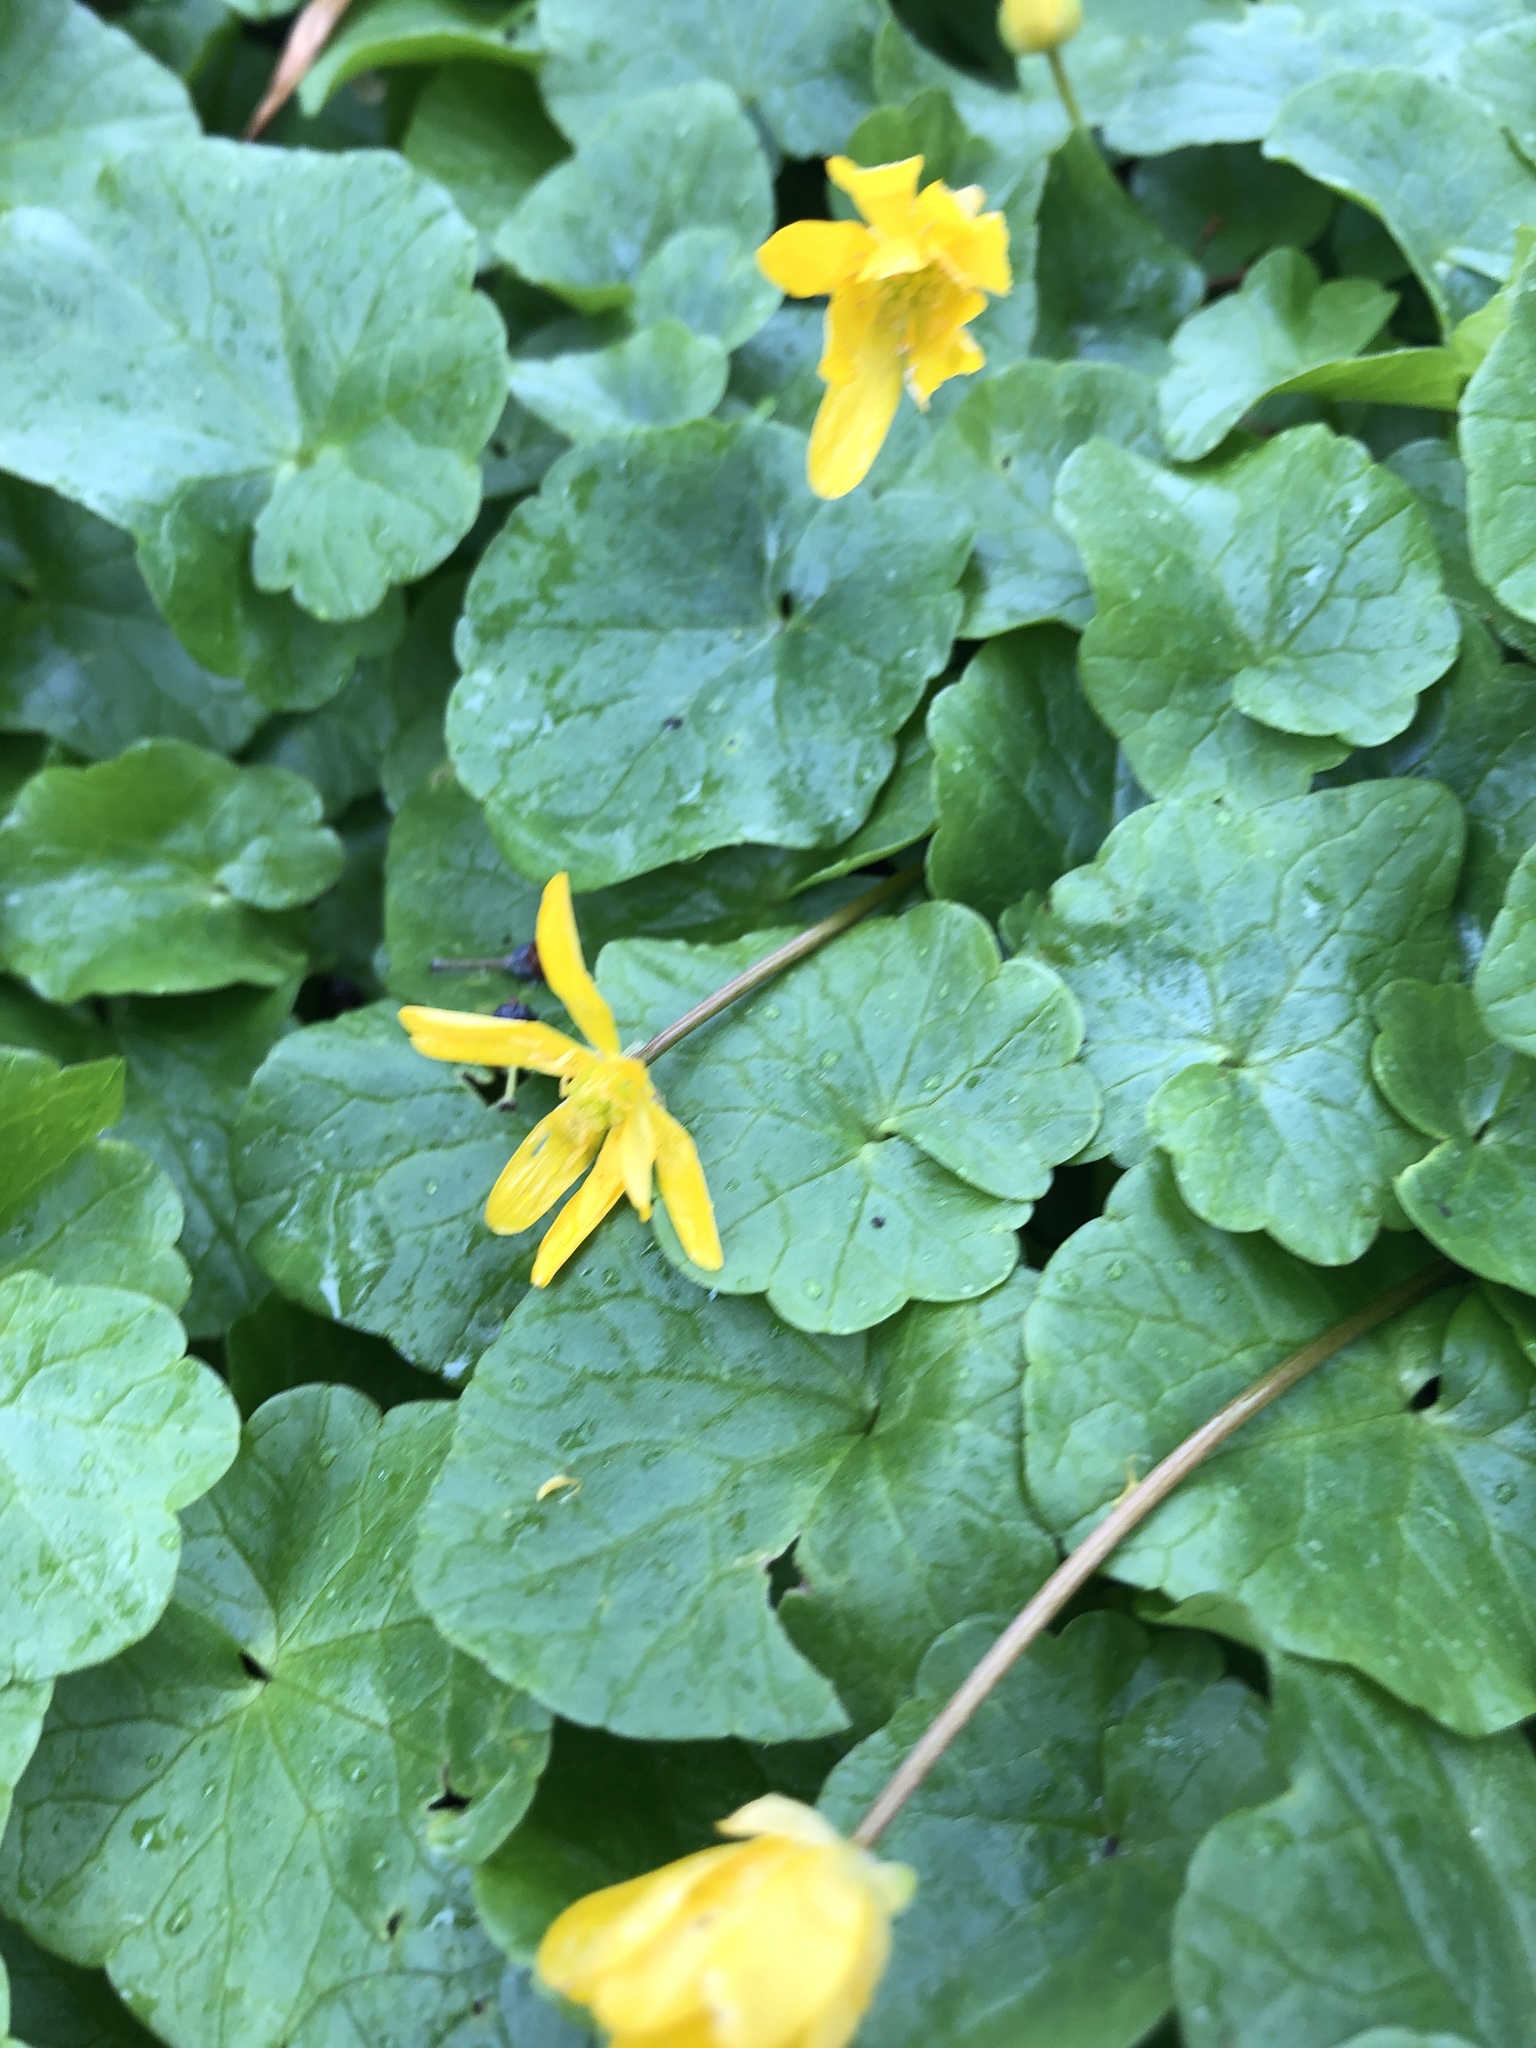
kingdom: Plantae
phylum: Tracheophyta
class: Magnoliopsida
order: Ranunculales
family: Ranunculaceae
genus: Ficaria
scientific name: Ficaria verna
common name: Lesser celandine
